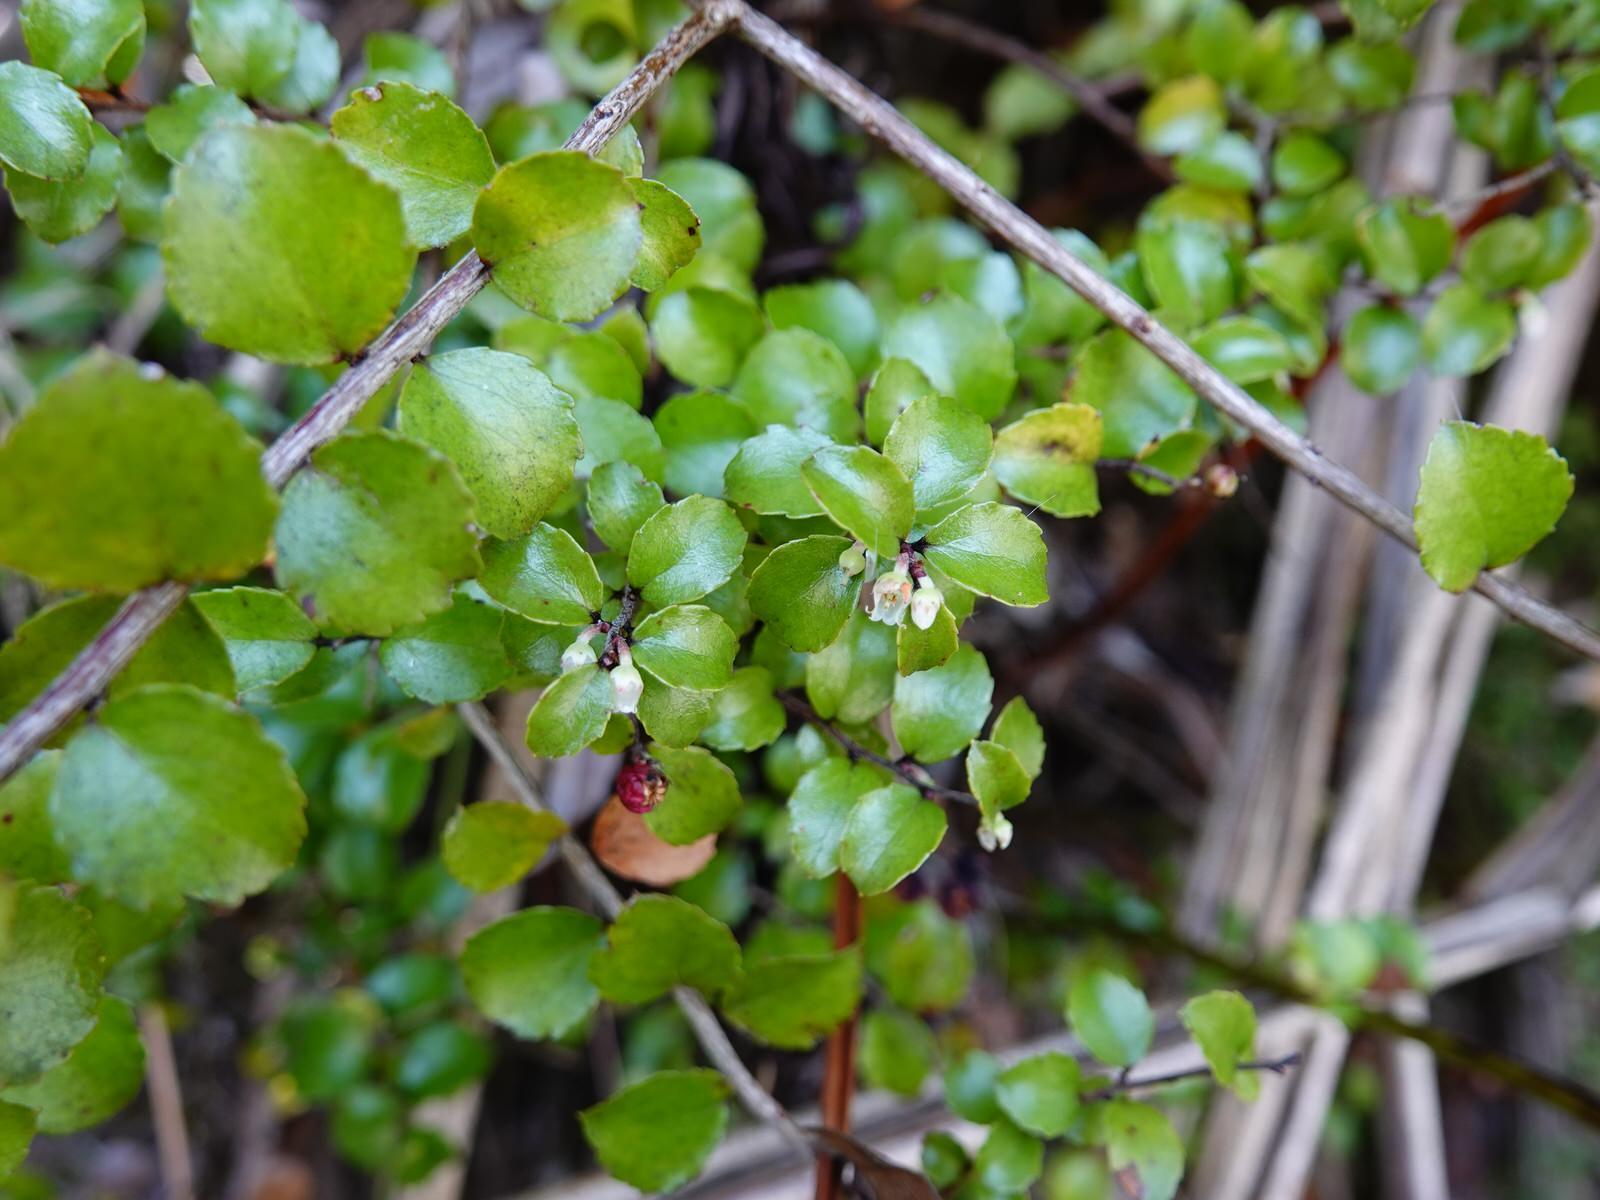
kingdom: Plantae
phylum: Tracheophyta
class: Magnoliopsida
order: Ericales
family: Ericaceae
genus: Gaultheria
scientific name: Gaultheria antipoda
